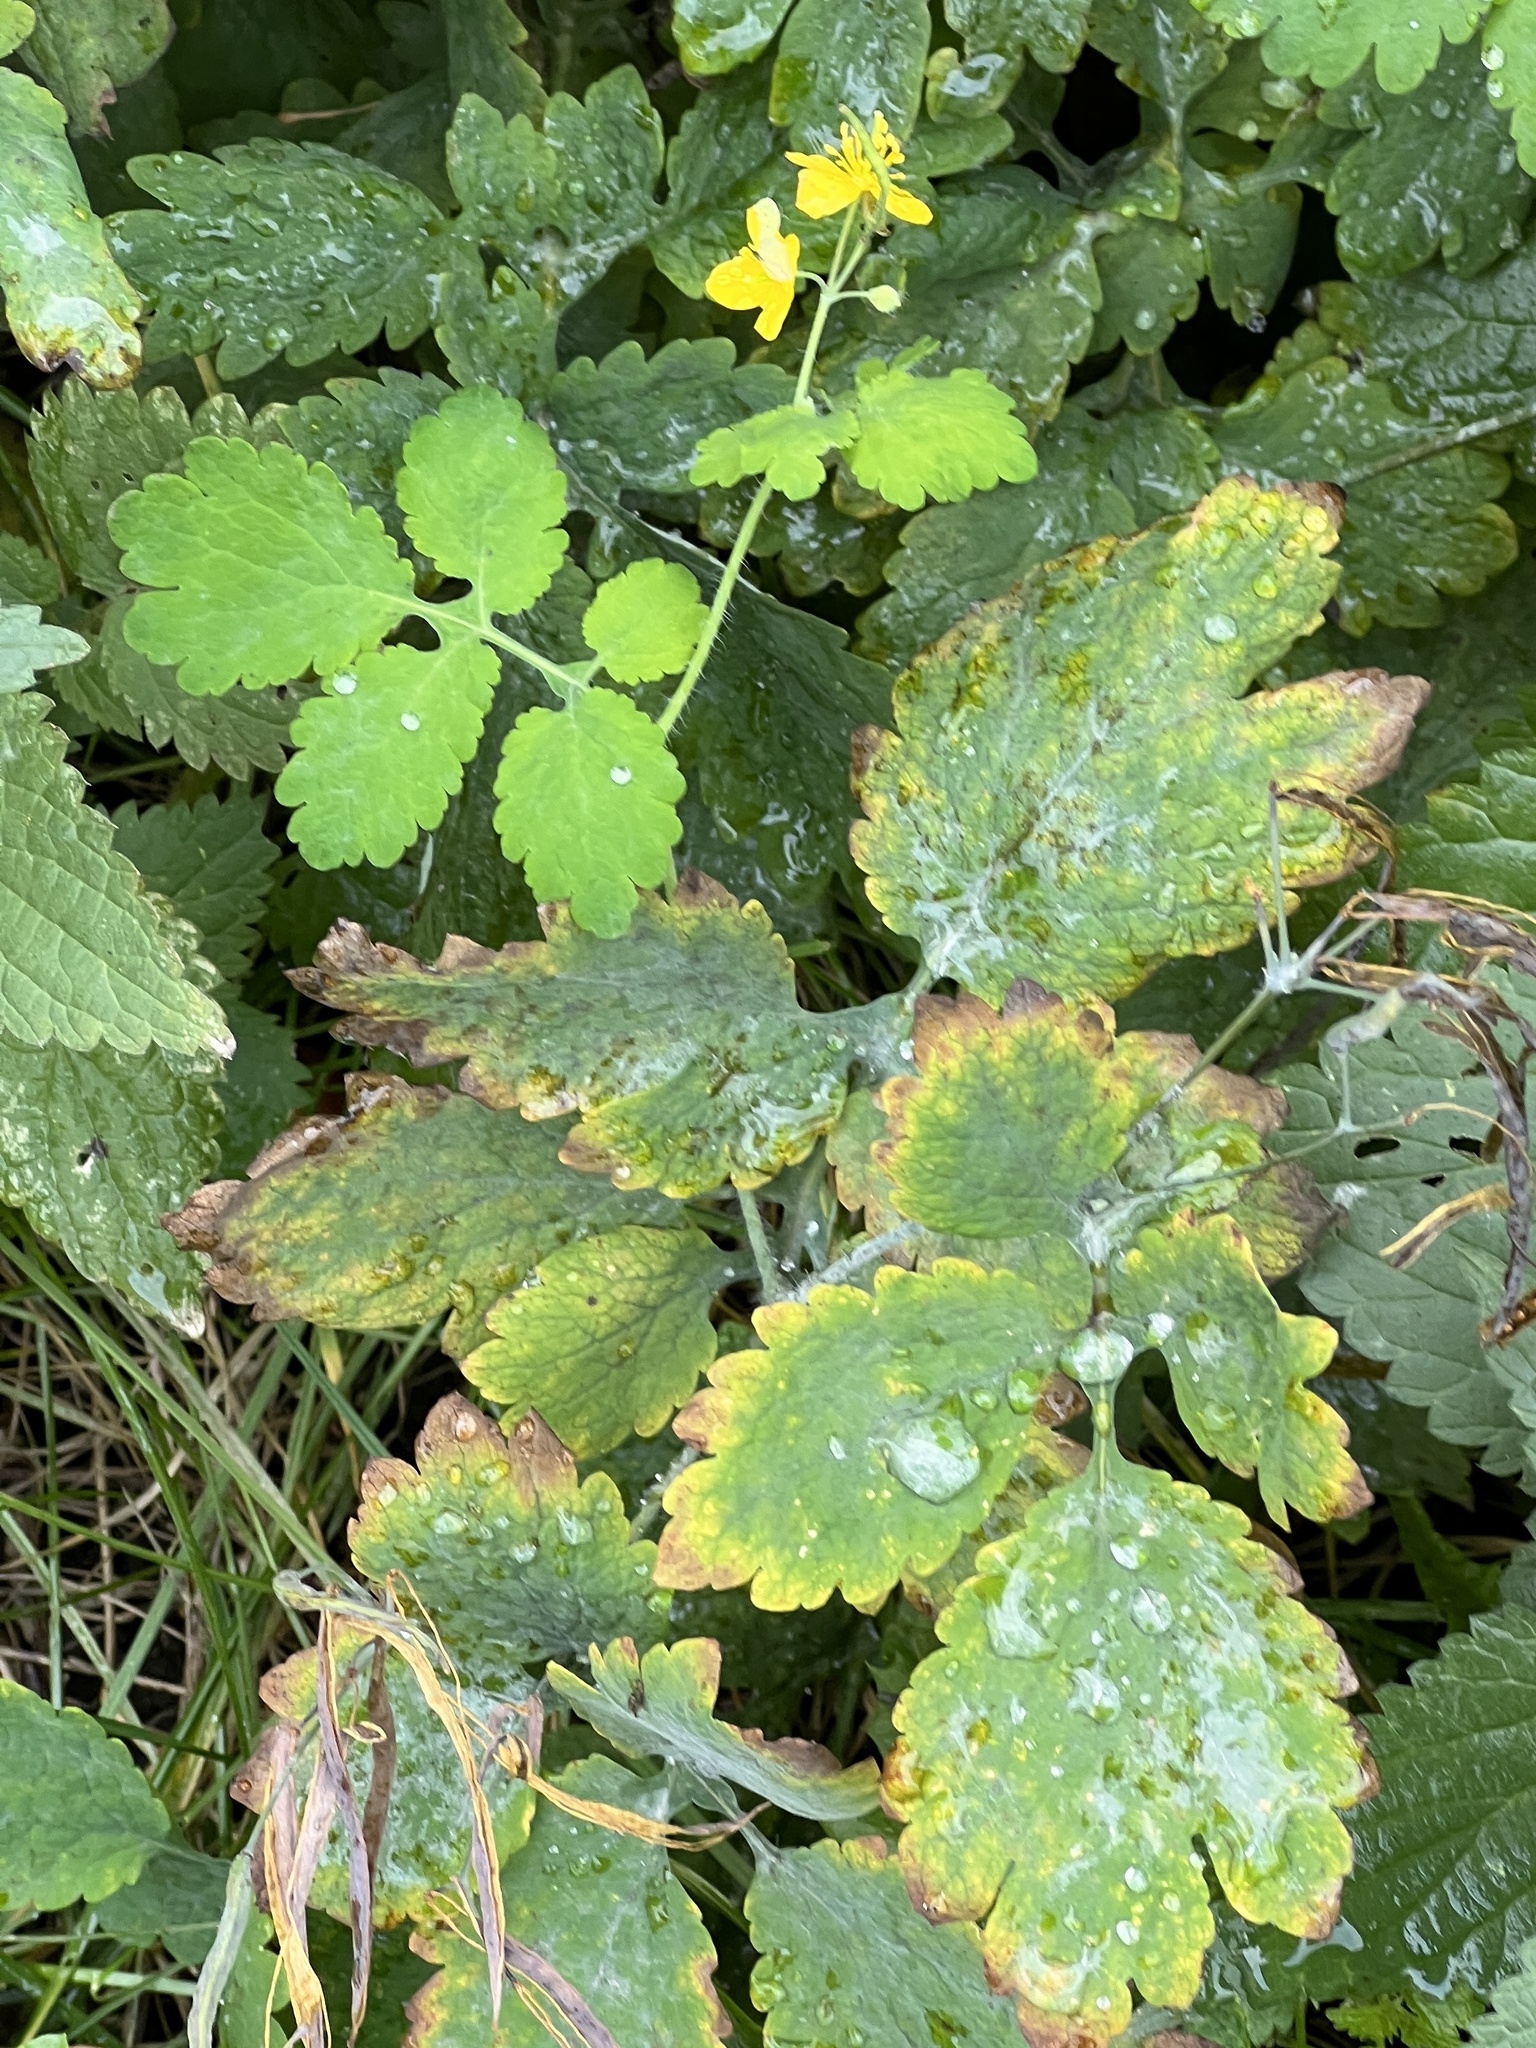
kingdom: Plantae
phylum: Tracheophyta
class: Magnoliopsida
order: Ranunculales
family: Papaveraceae
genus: Chelidonium
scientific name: Chelidonium majus
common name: Greater celandine
